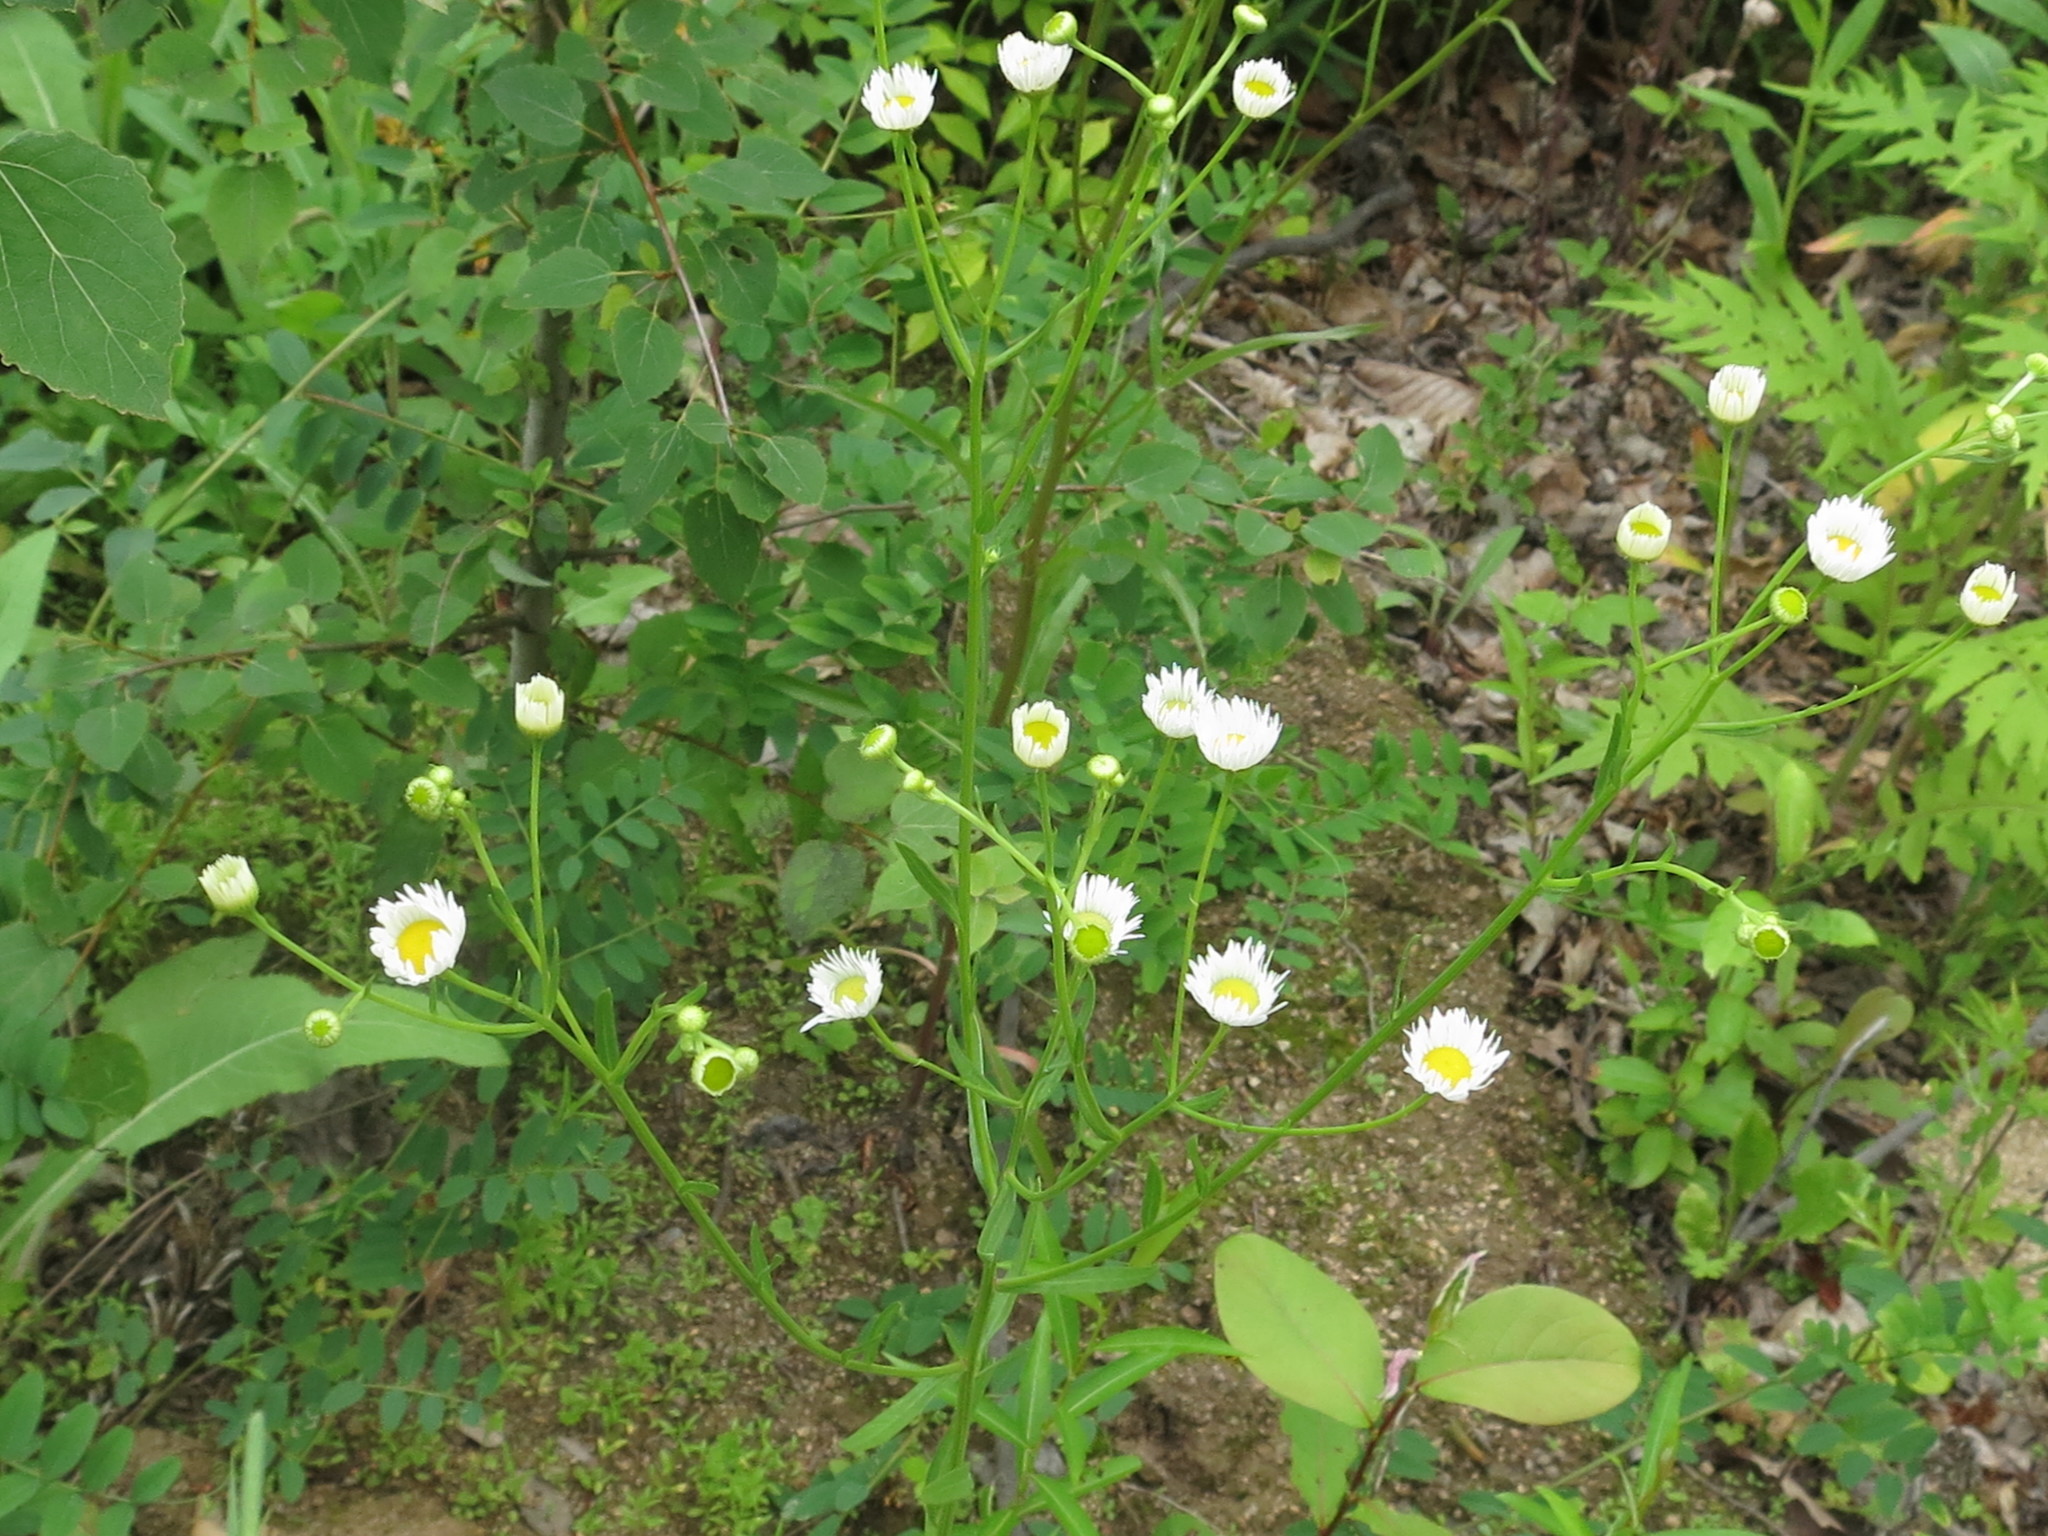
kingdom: Plantae
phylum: Tracheophyta
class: Magnoliopsida
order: Asterales
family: Asteraceae
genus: Erigeron
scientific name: Erigeron annuus
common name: Tall fleabane
